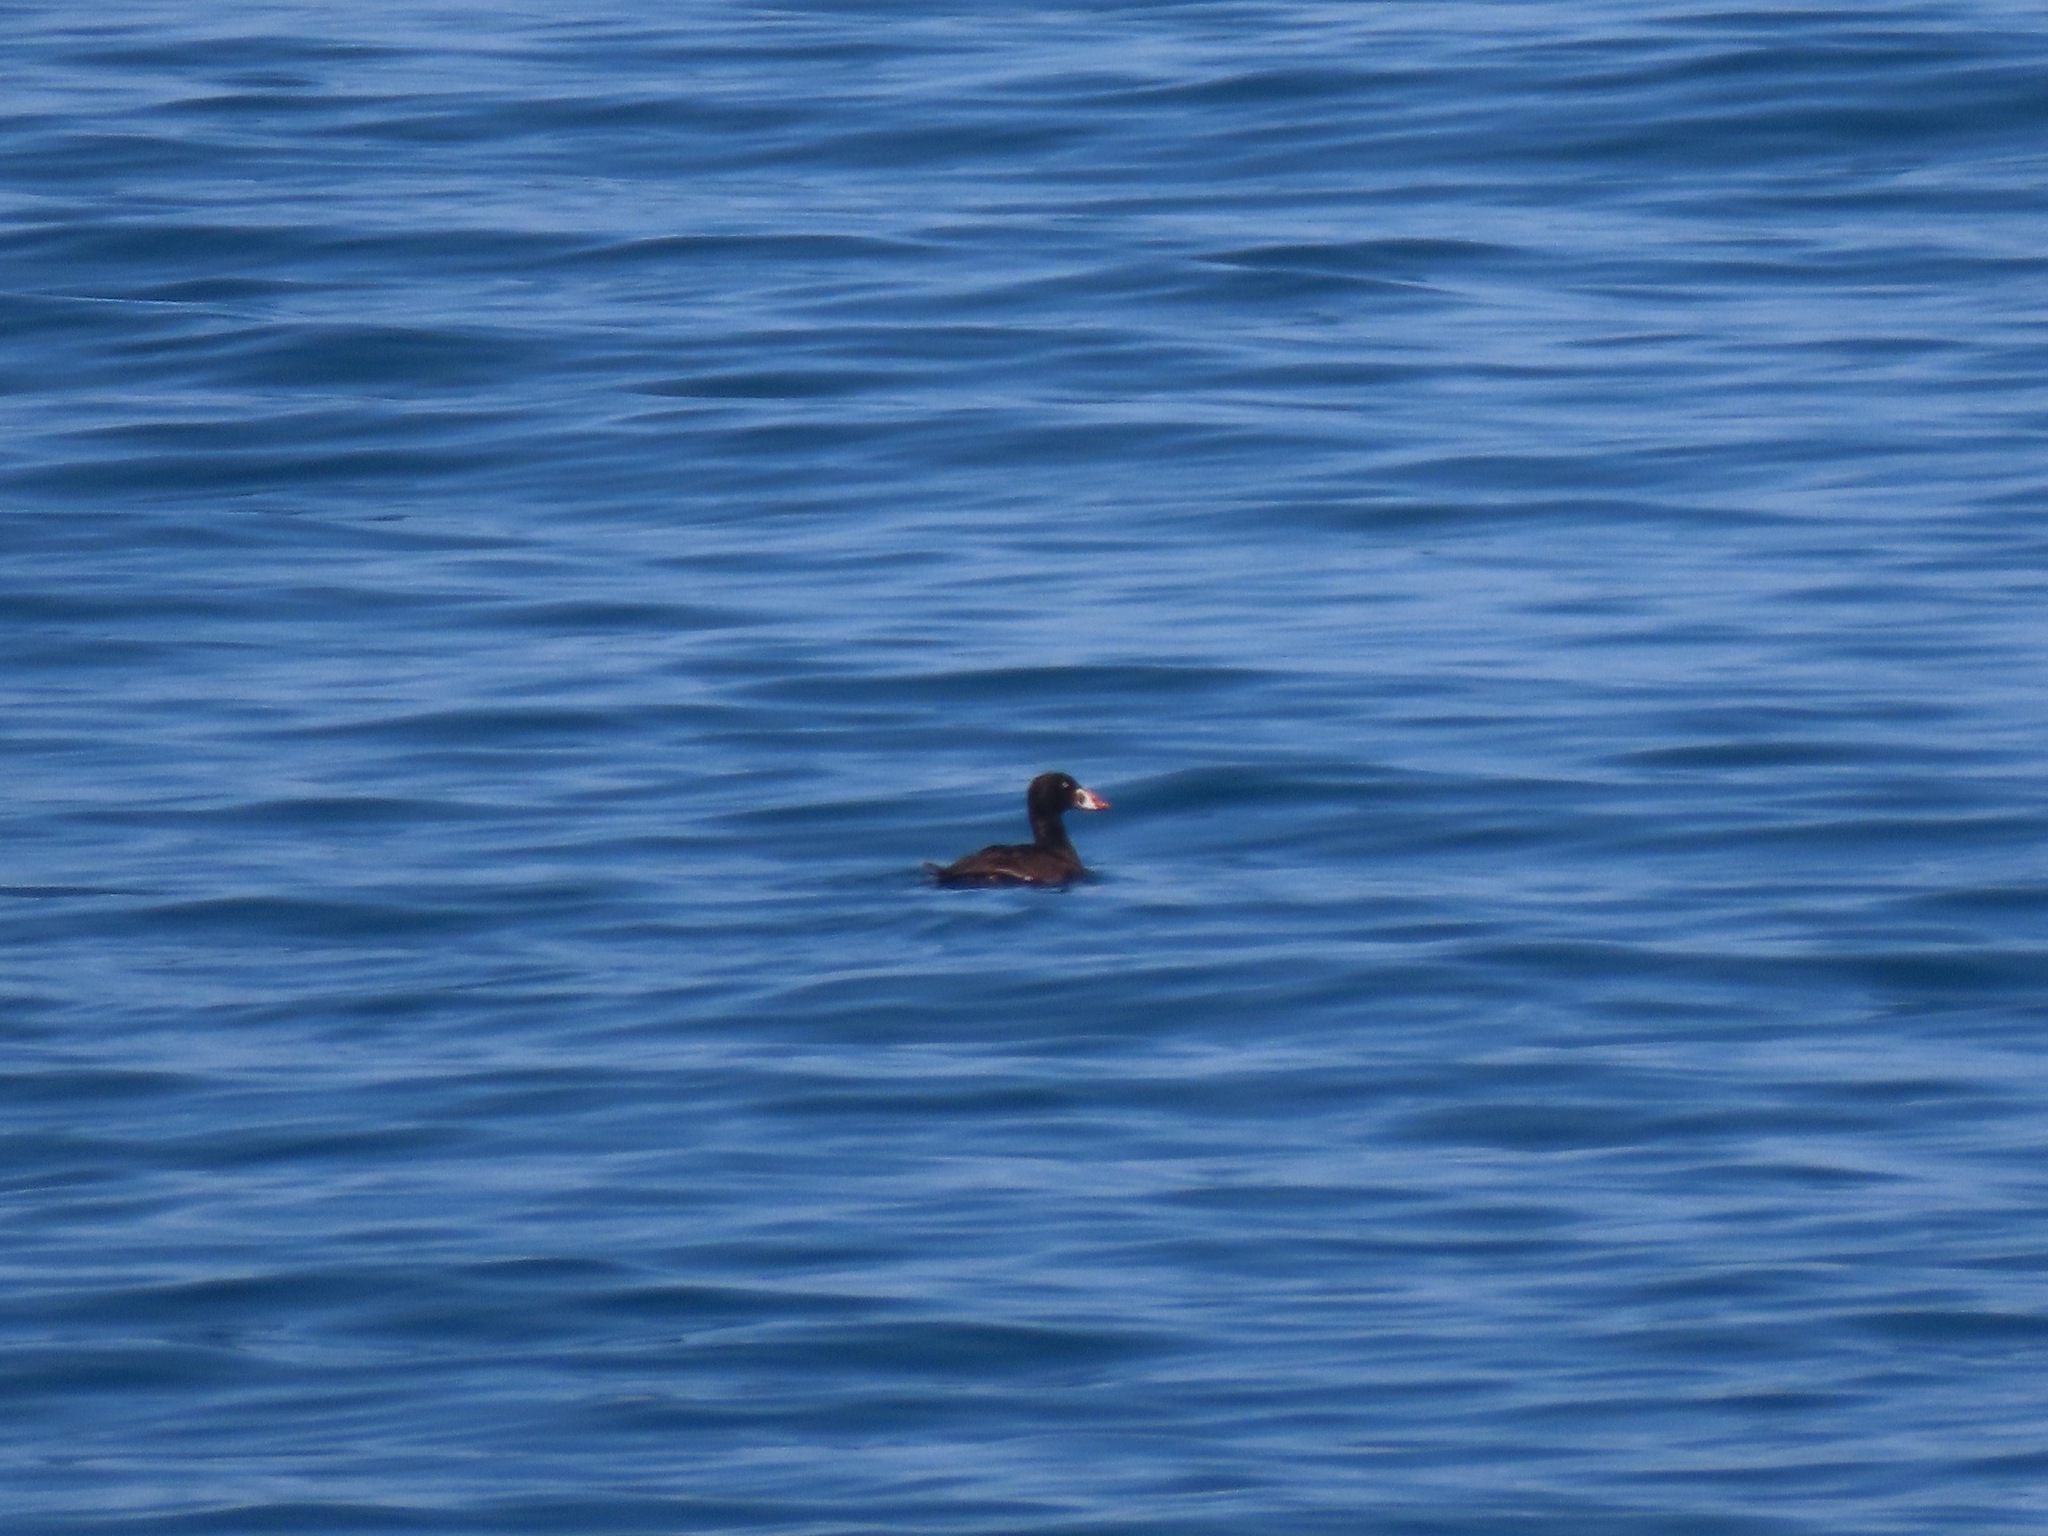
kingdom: Animalia
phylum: Chordata
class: Aves
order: Anseriformes
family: Anatidae
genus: Melanitta
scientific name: Melanitta perspicillata
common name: Surf scoter
